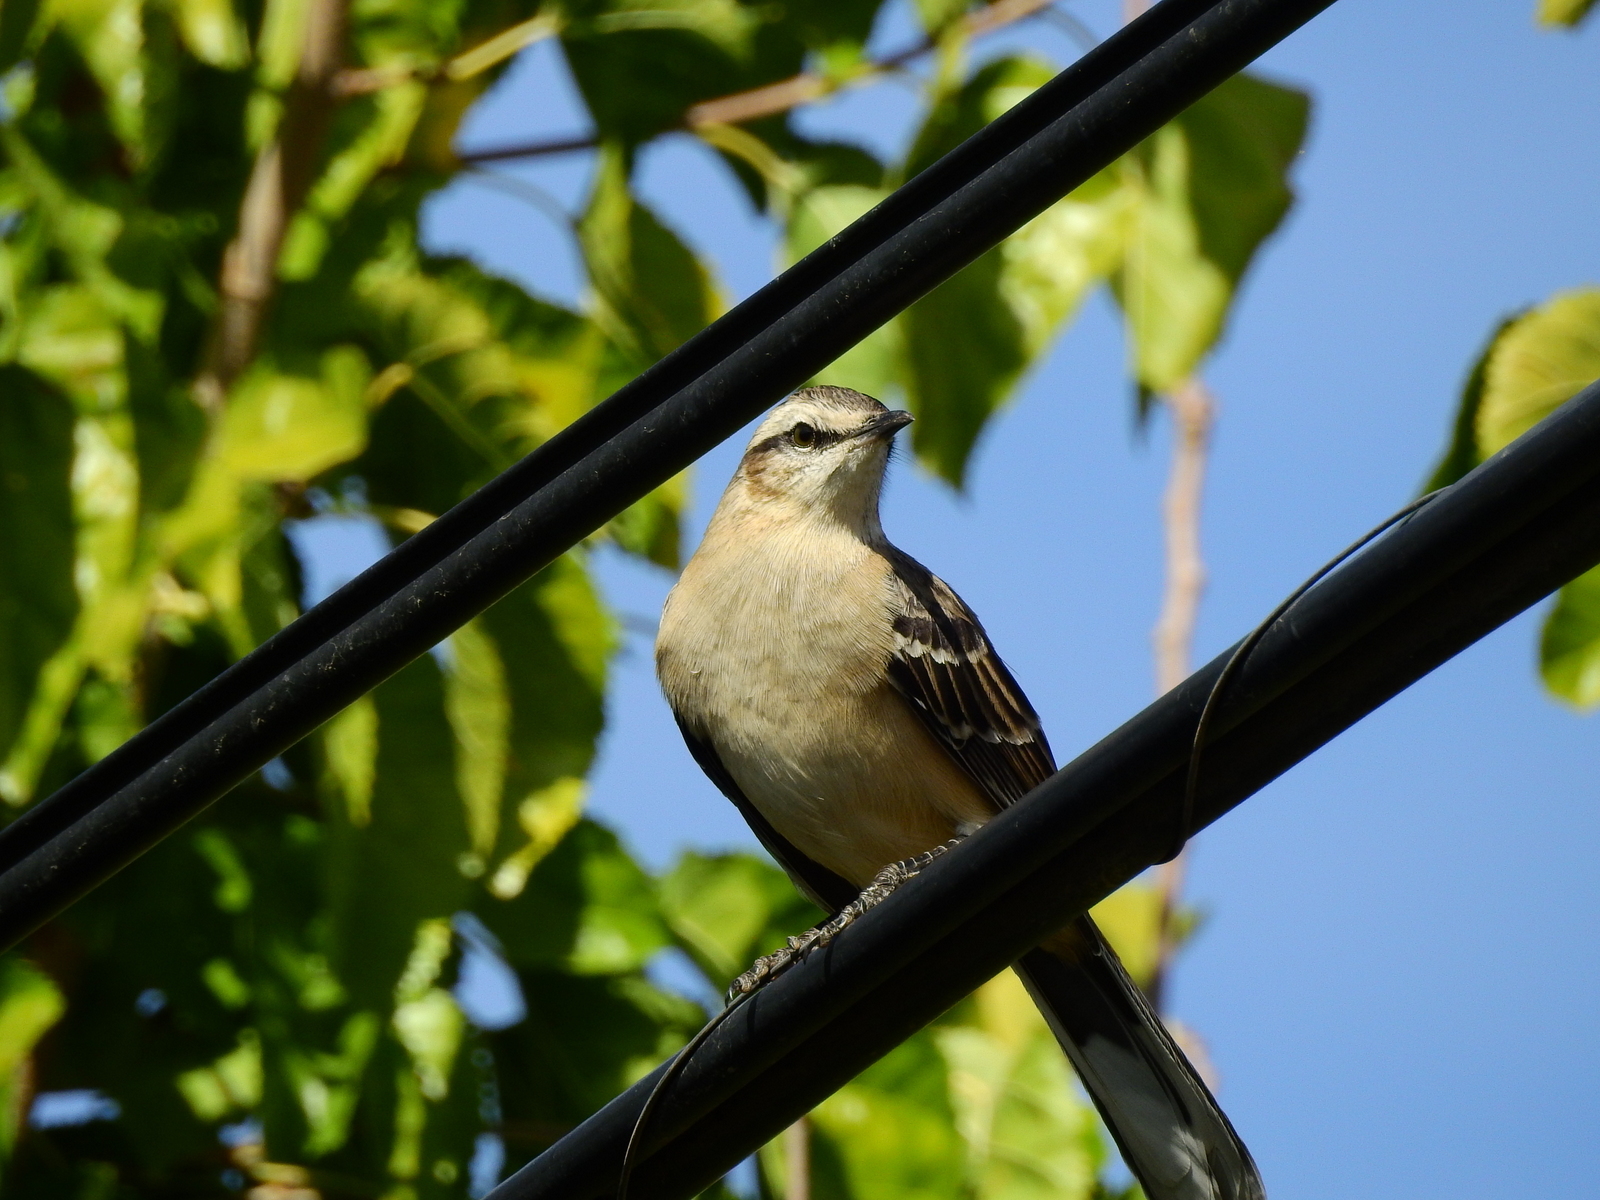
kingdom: Animalia
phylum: Chordata
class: Aves
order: Passeriformes
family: Mimidae
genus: Mimus
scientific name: Mimus saturninus
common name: Chalk-browed mockingbird
